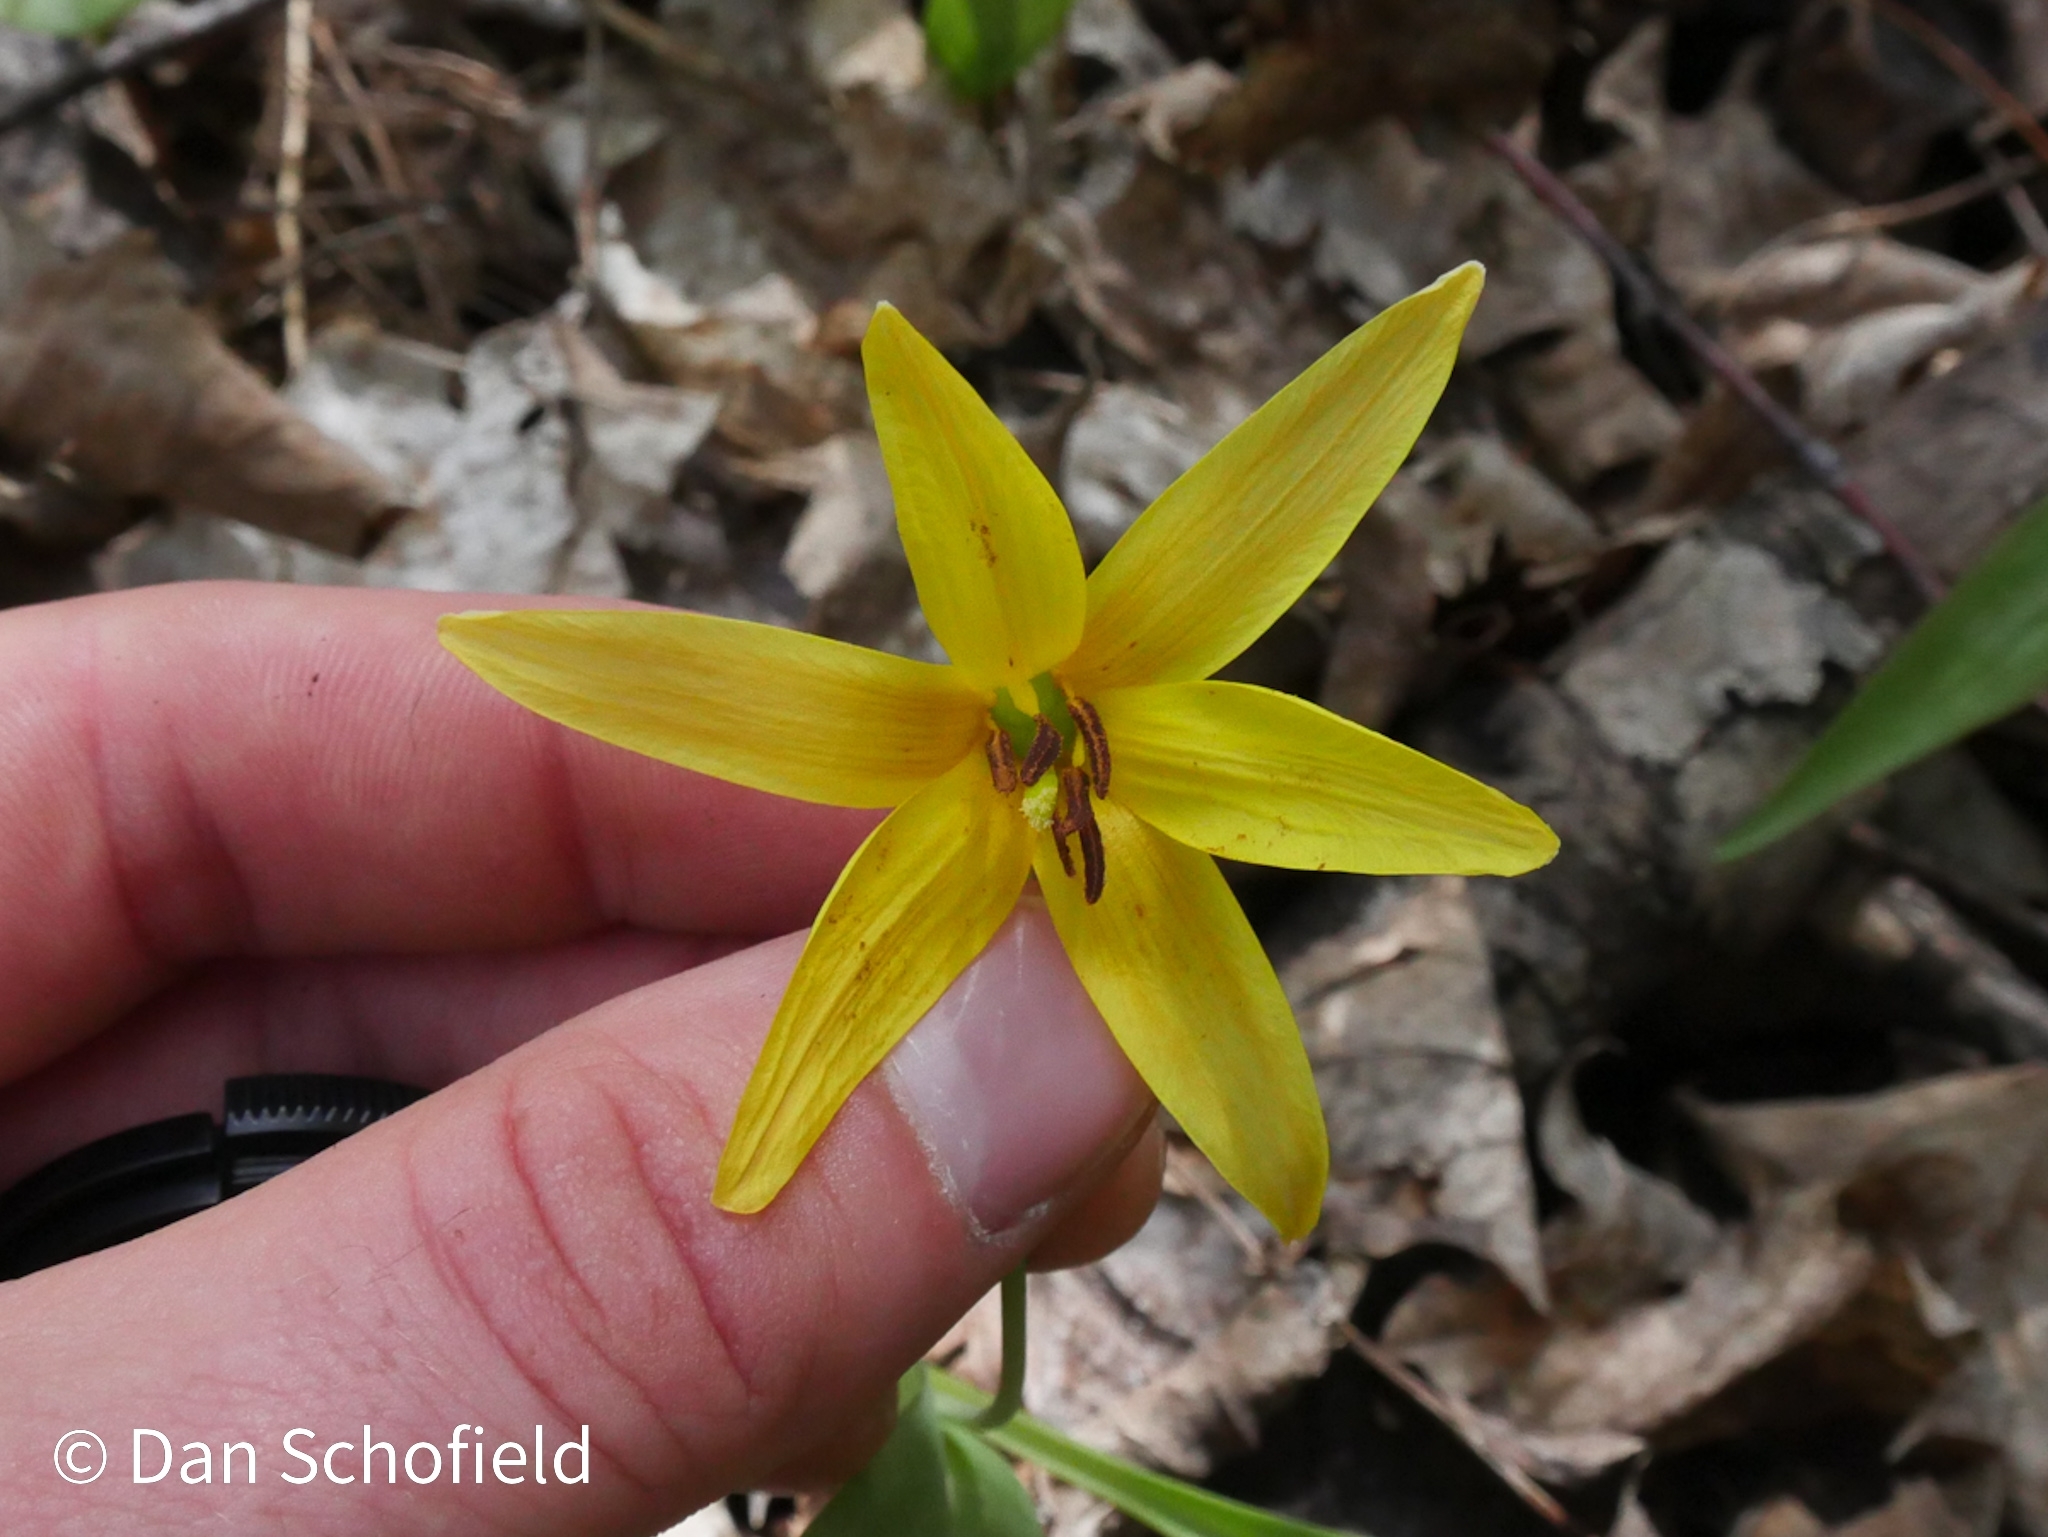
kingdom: Plantae
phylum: Tracheophyta
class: Liliopsida
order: Liliales
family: Liliaceae
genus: Erythronium
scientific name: Erythronium americanum
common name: Yellow adder's-tongue
